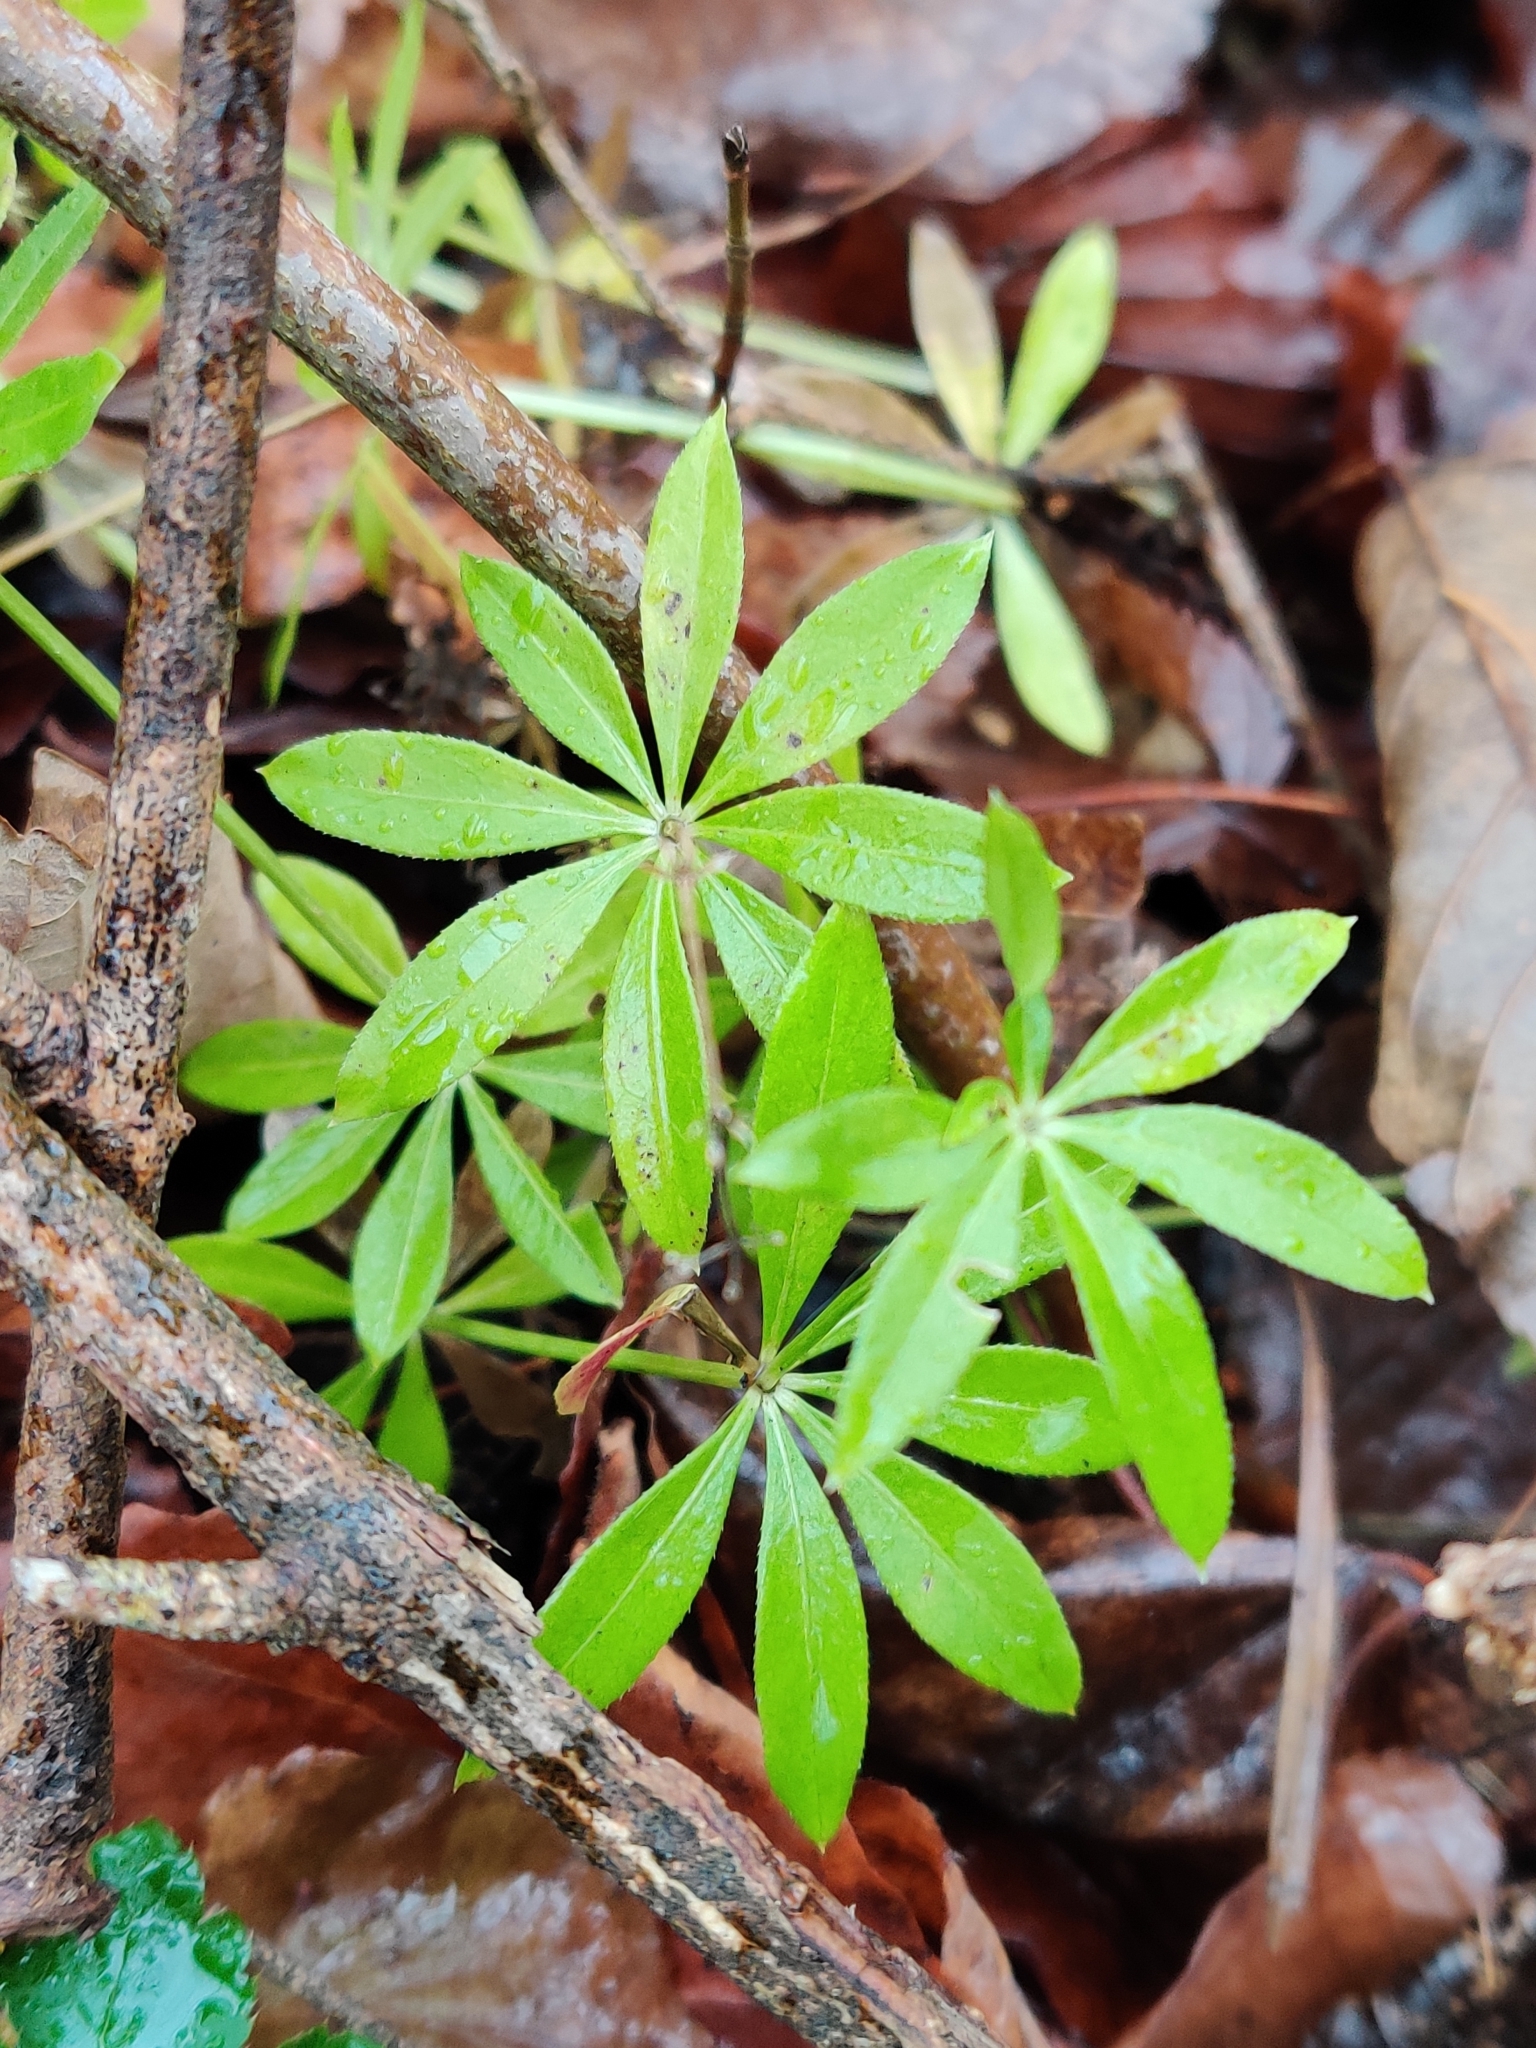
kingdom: Plantae
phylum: Tracheophyta
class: Magnoliopsida
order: Gentianales
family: Rubiaceae
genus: Galium
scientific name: Galium odoratum
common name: Sweet woodruff
